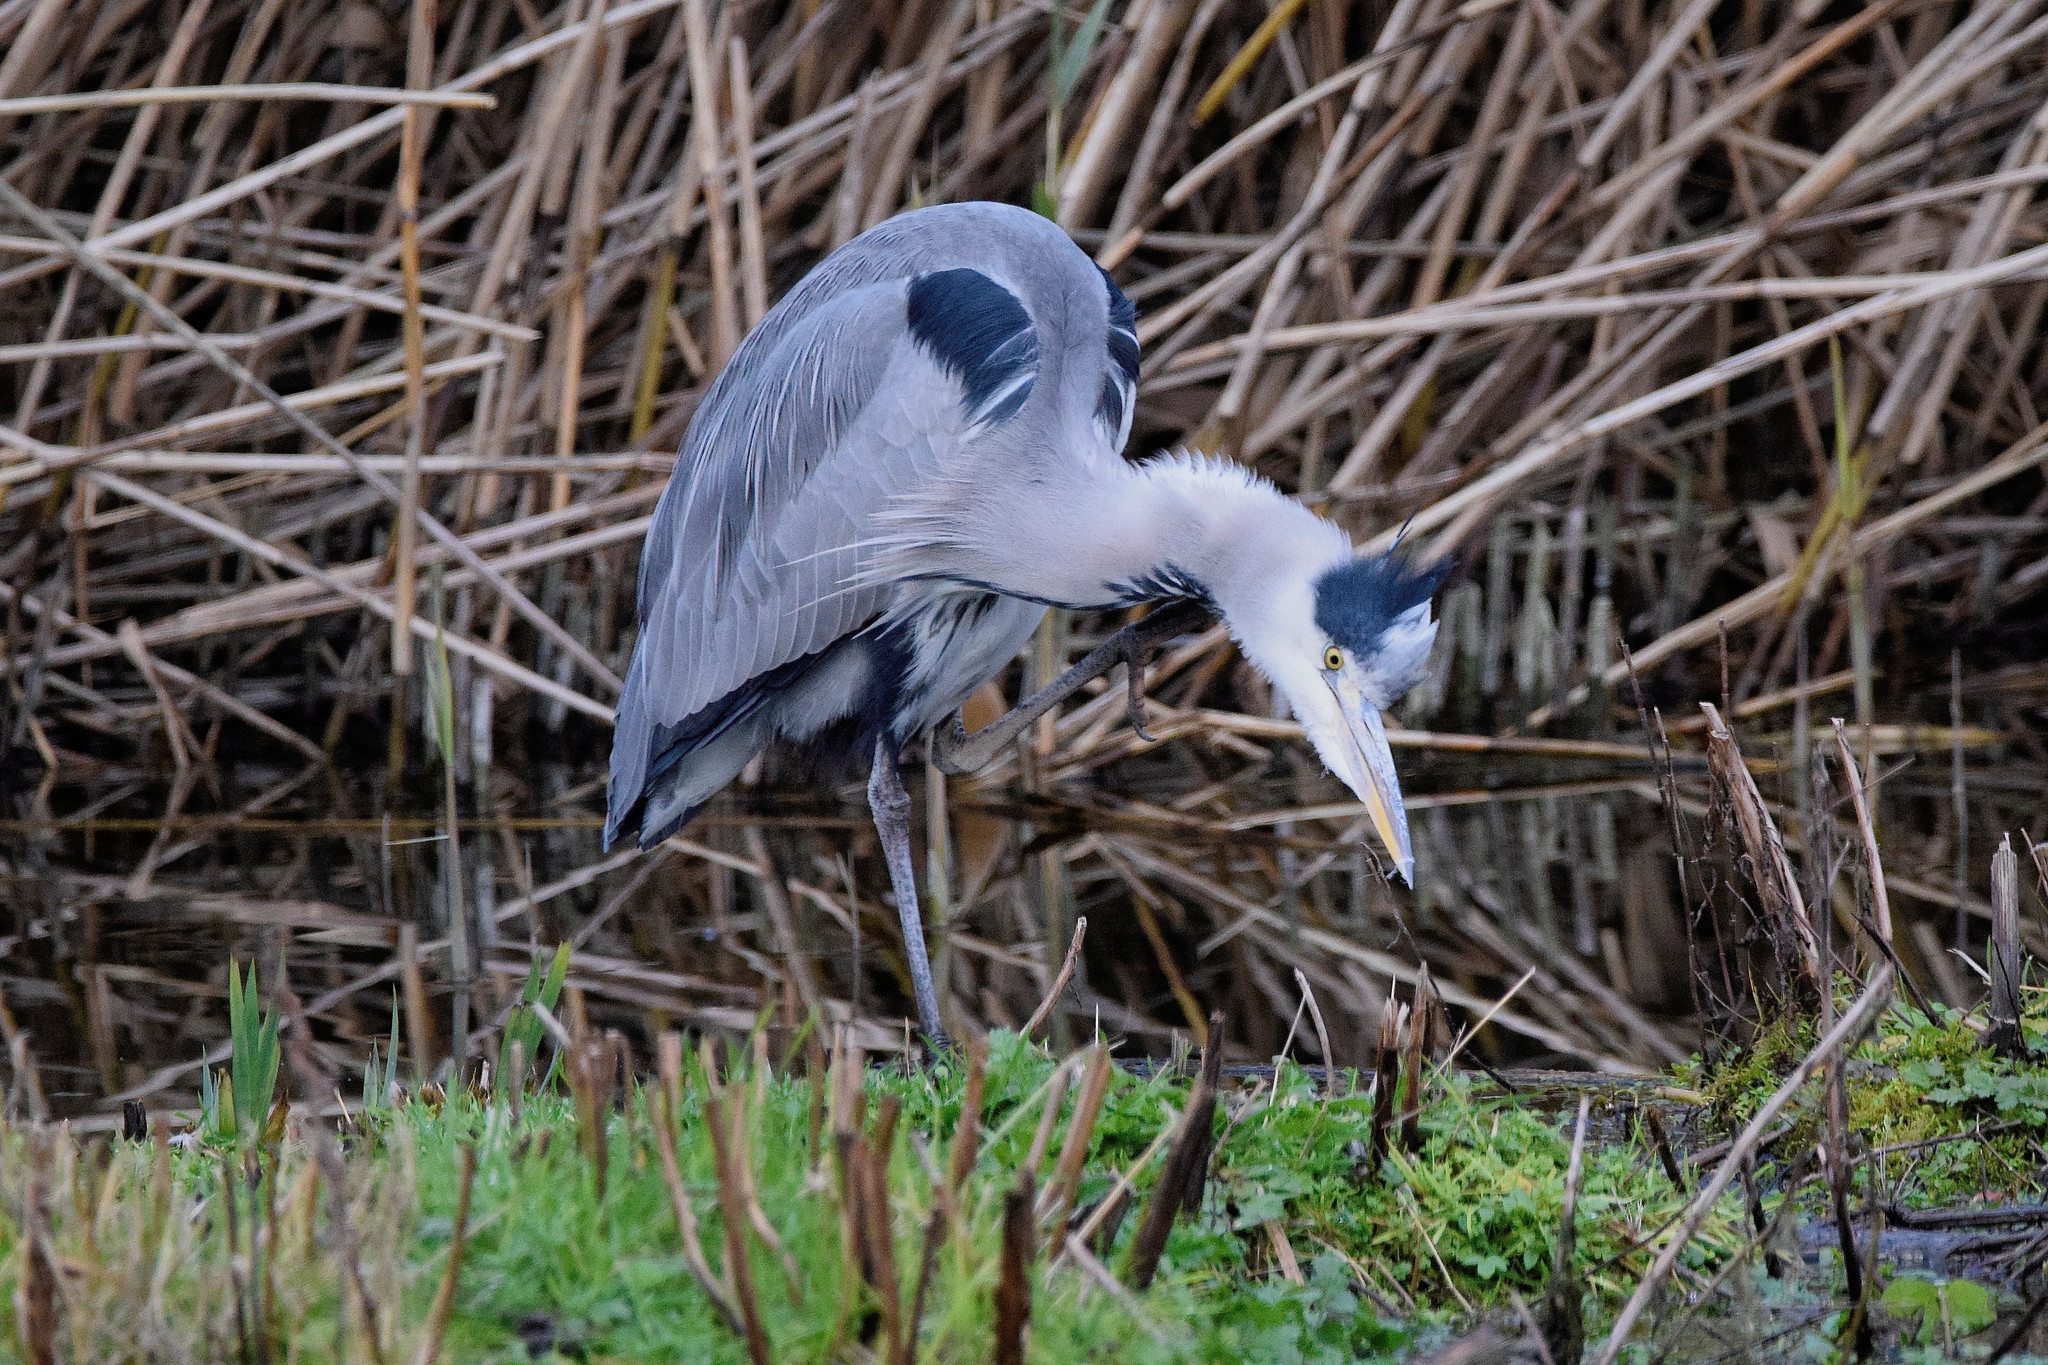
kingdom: Animalia
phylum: Chordata
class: Aves
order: Pelecaniformes
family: Ardeidae
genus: Ardea
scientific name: Ardea cinerea
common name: Grey heron
